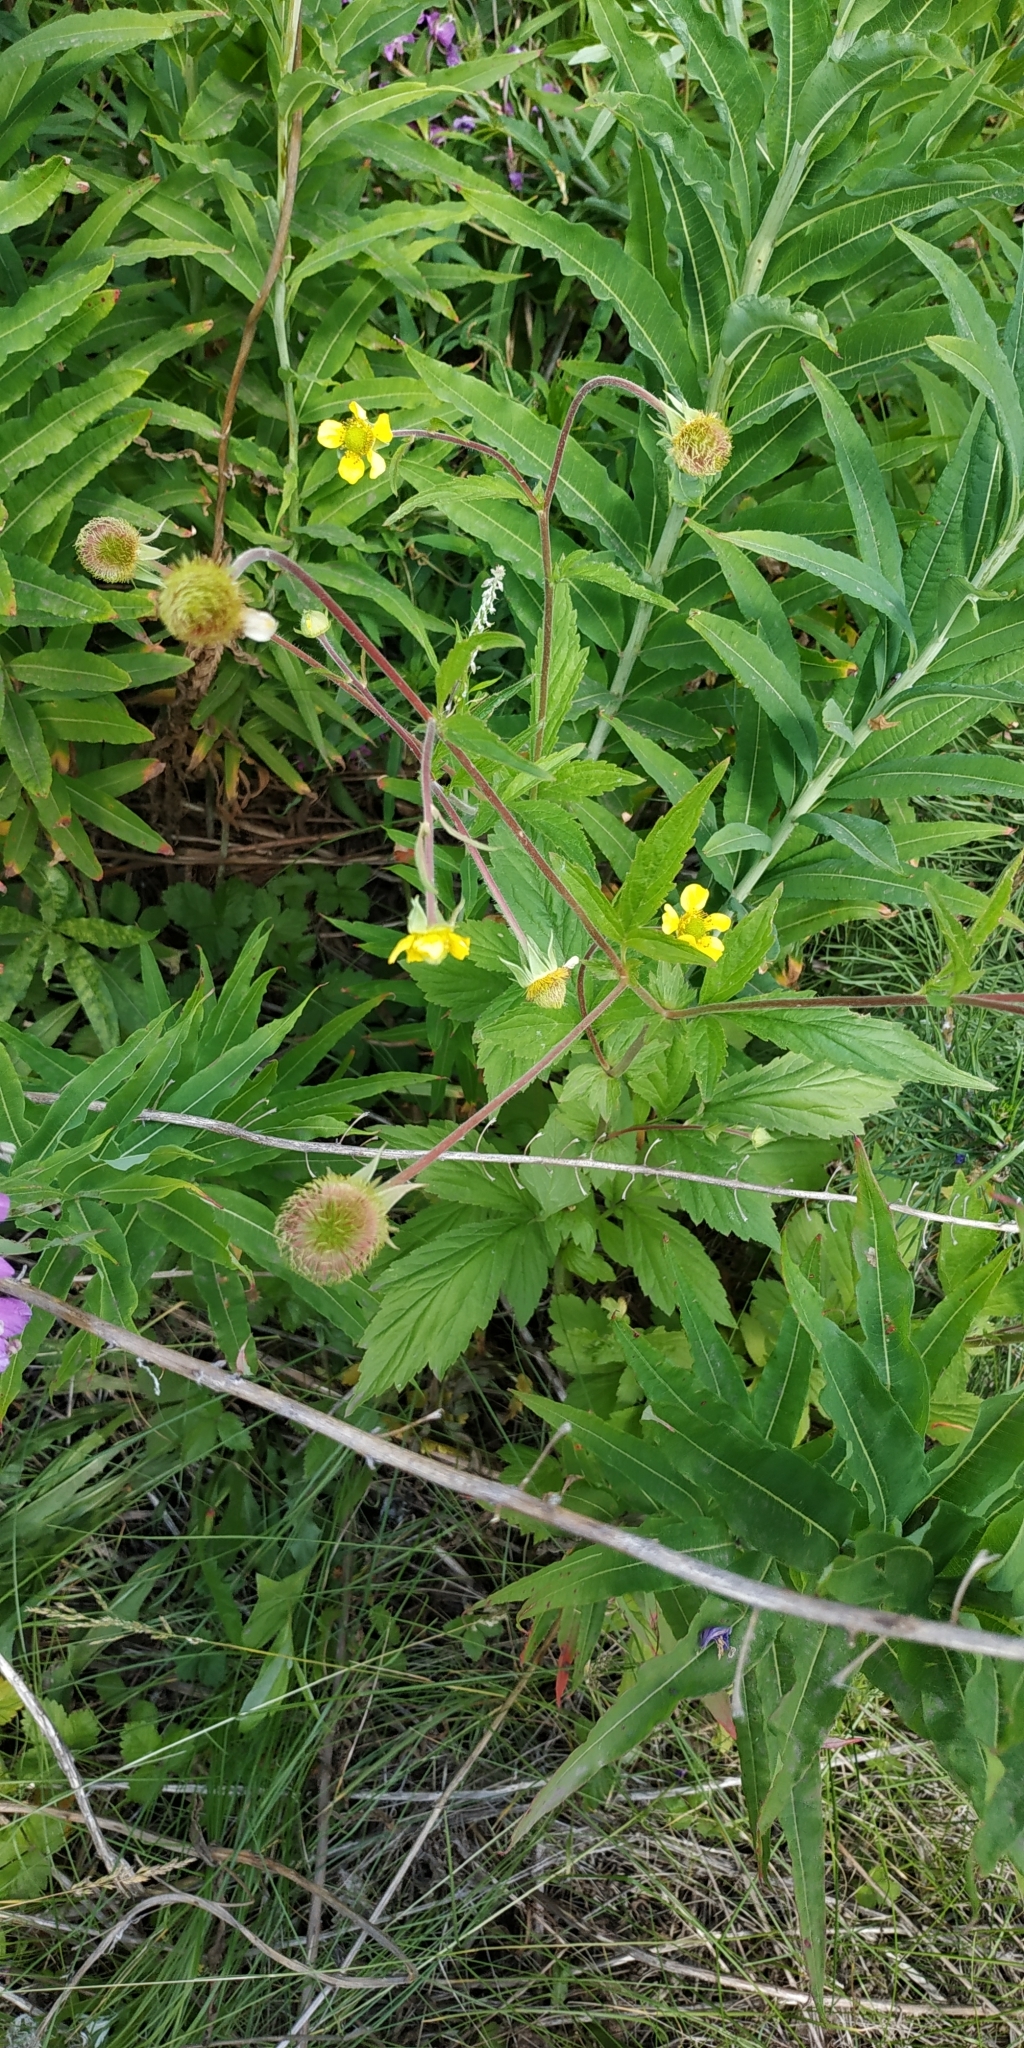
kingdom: Plantae
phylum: Tracheophyta
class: Magnoliopsida
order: Rosales
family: Rosaceae
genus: Geum
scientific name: Geum aleppicum
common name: Yellow avens
